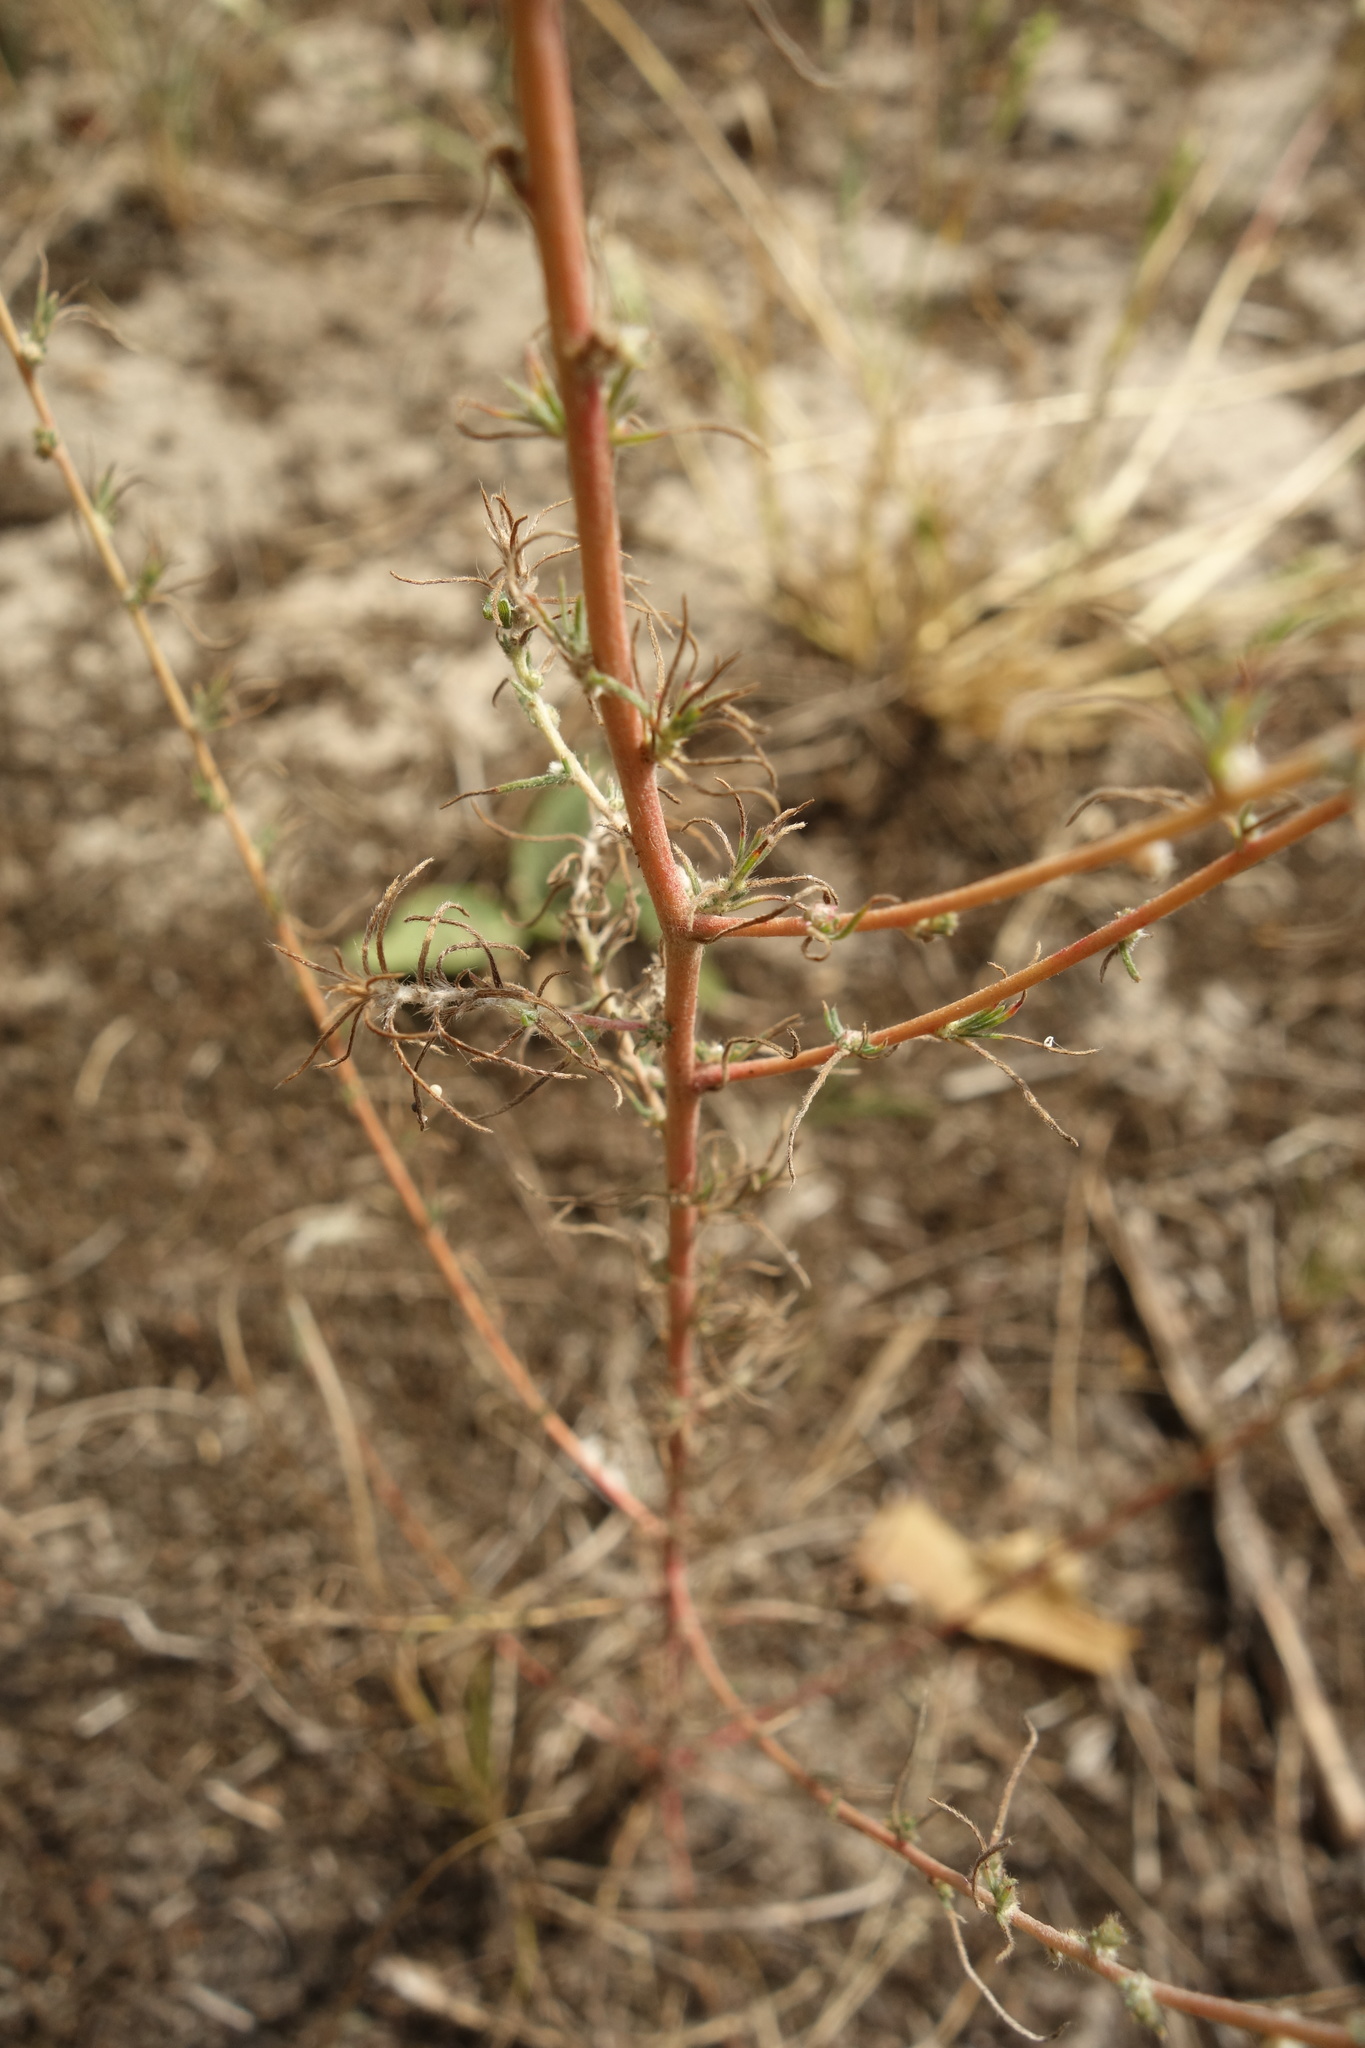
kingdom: Plantae
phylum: Tracheophyta
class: Magnoliopsida
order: Caryophyllales
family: Amaranthaceae
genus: Bassia
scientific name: Bassia laniflora
